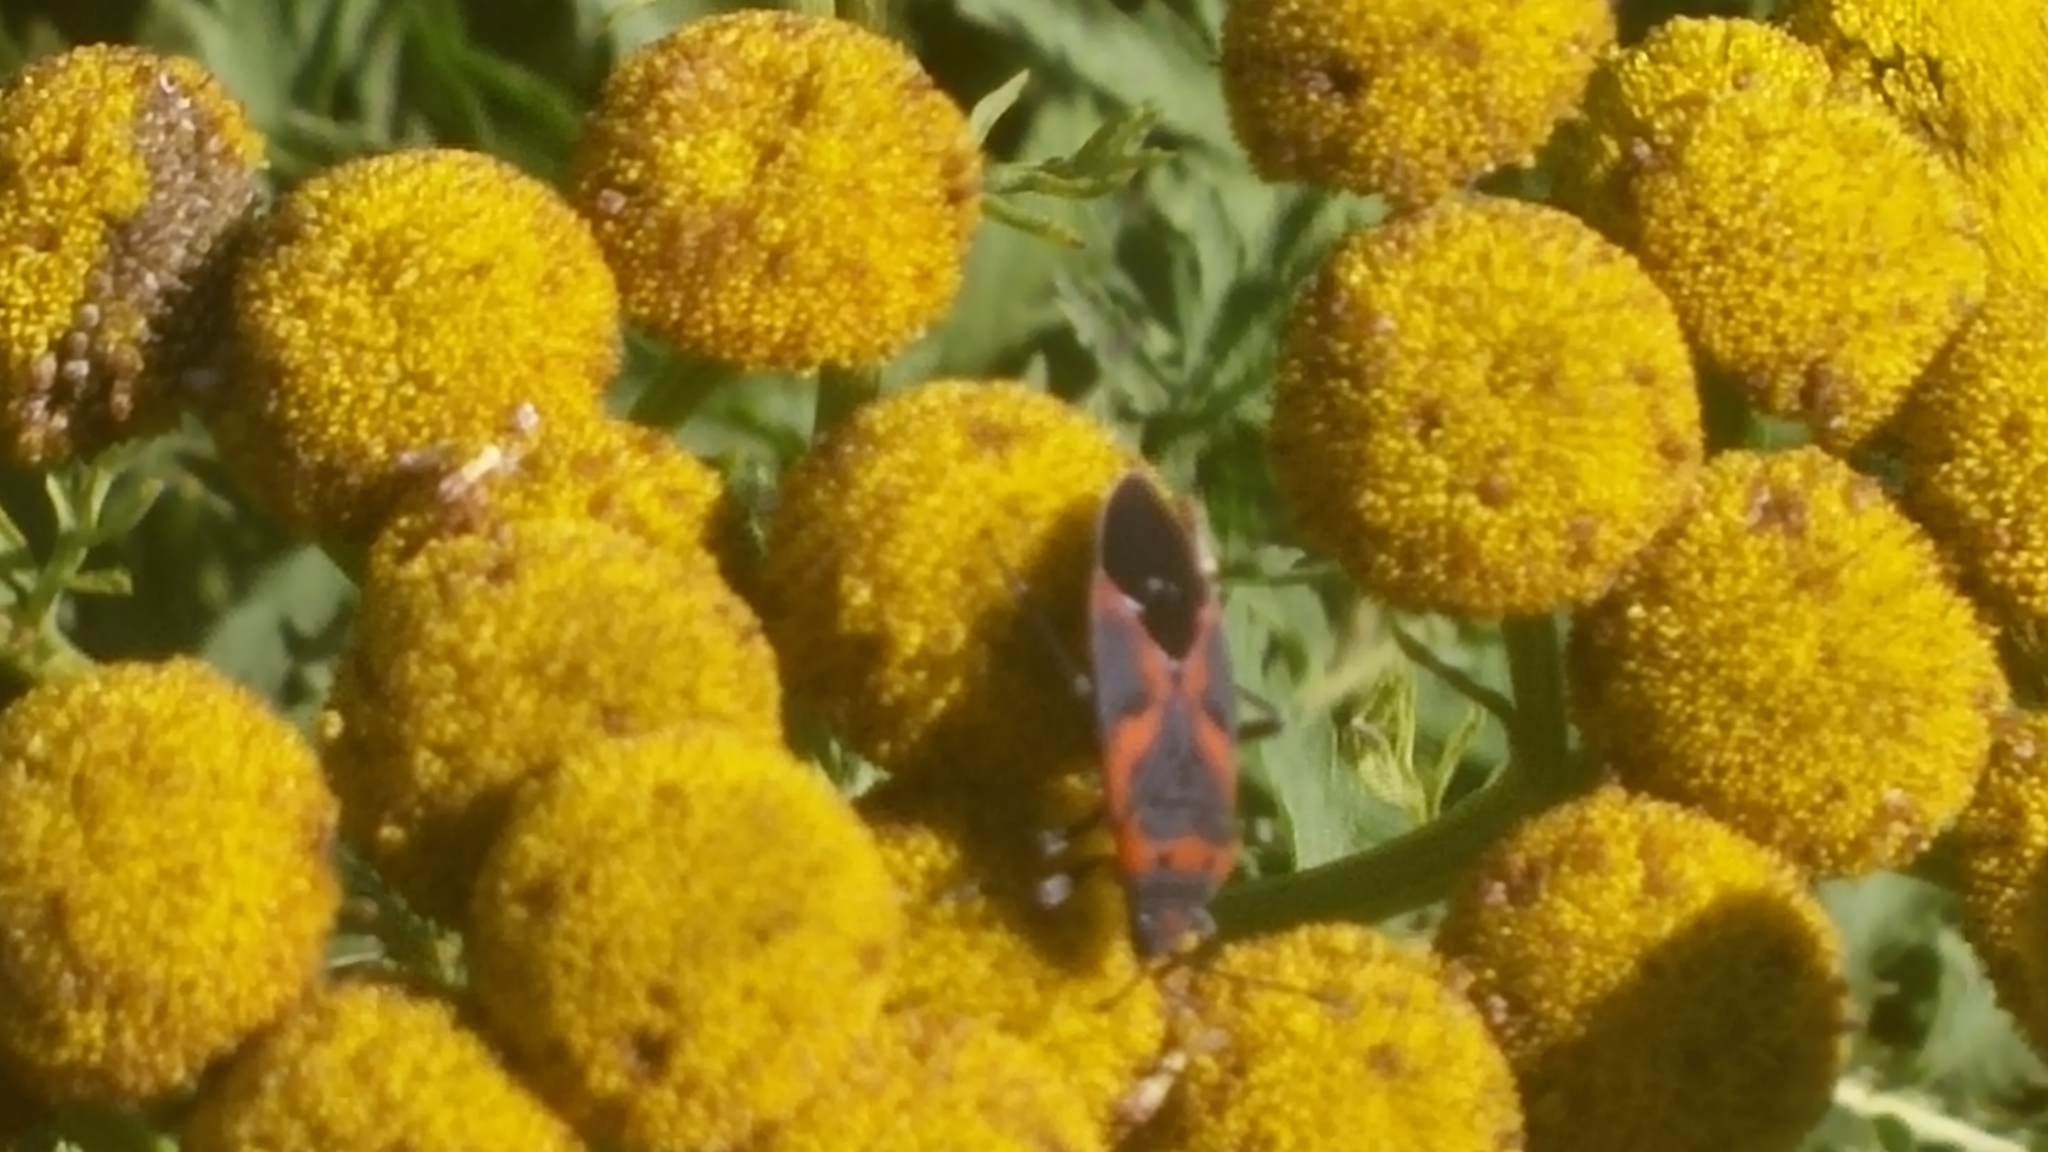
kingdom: Animalia
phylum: Arthropoda
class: Insecta
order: Hemiptera
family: Lygaeidae
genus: Lygaeus
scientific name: Lygaeus kalmii
